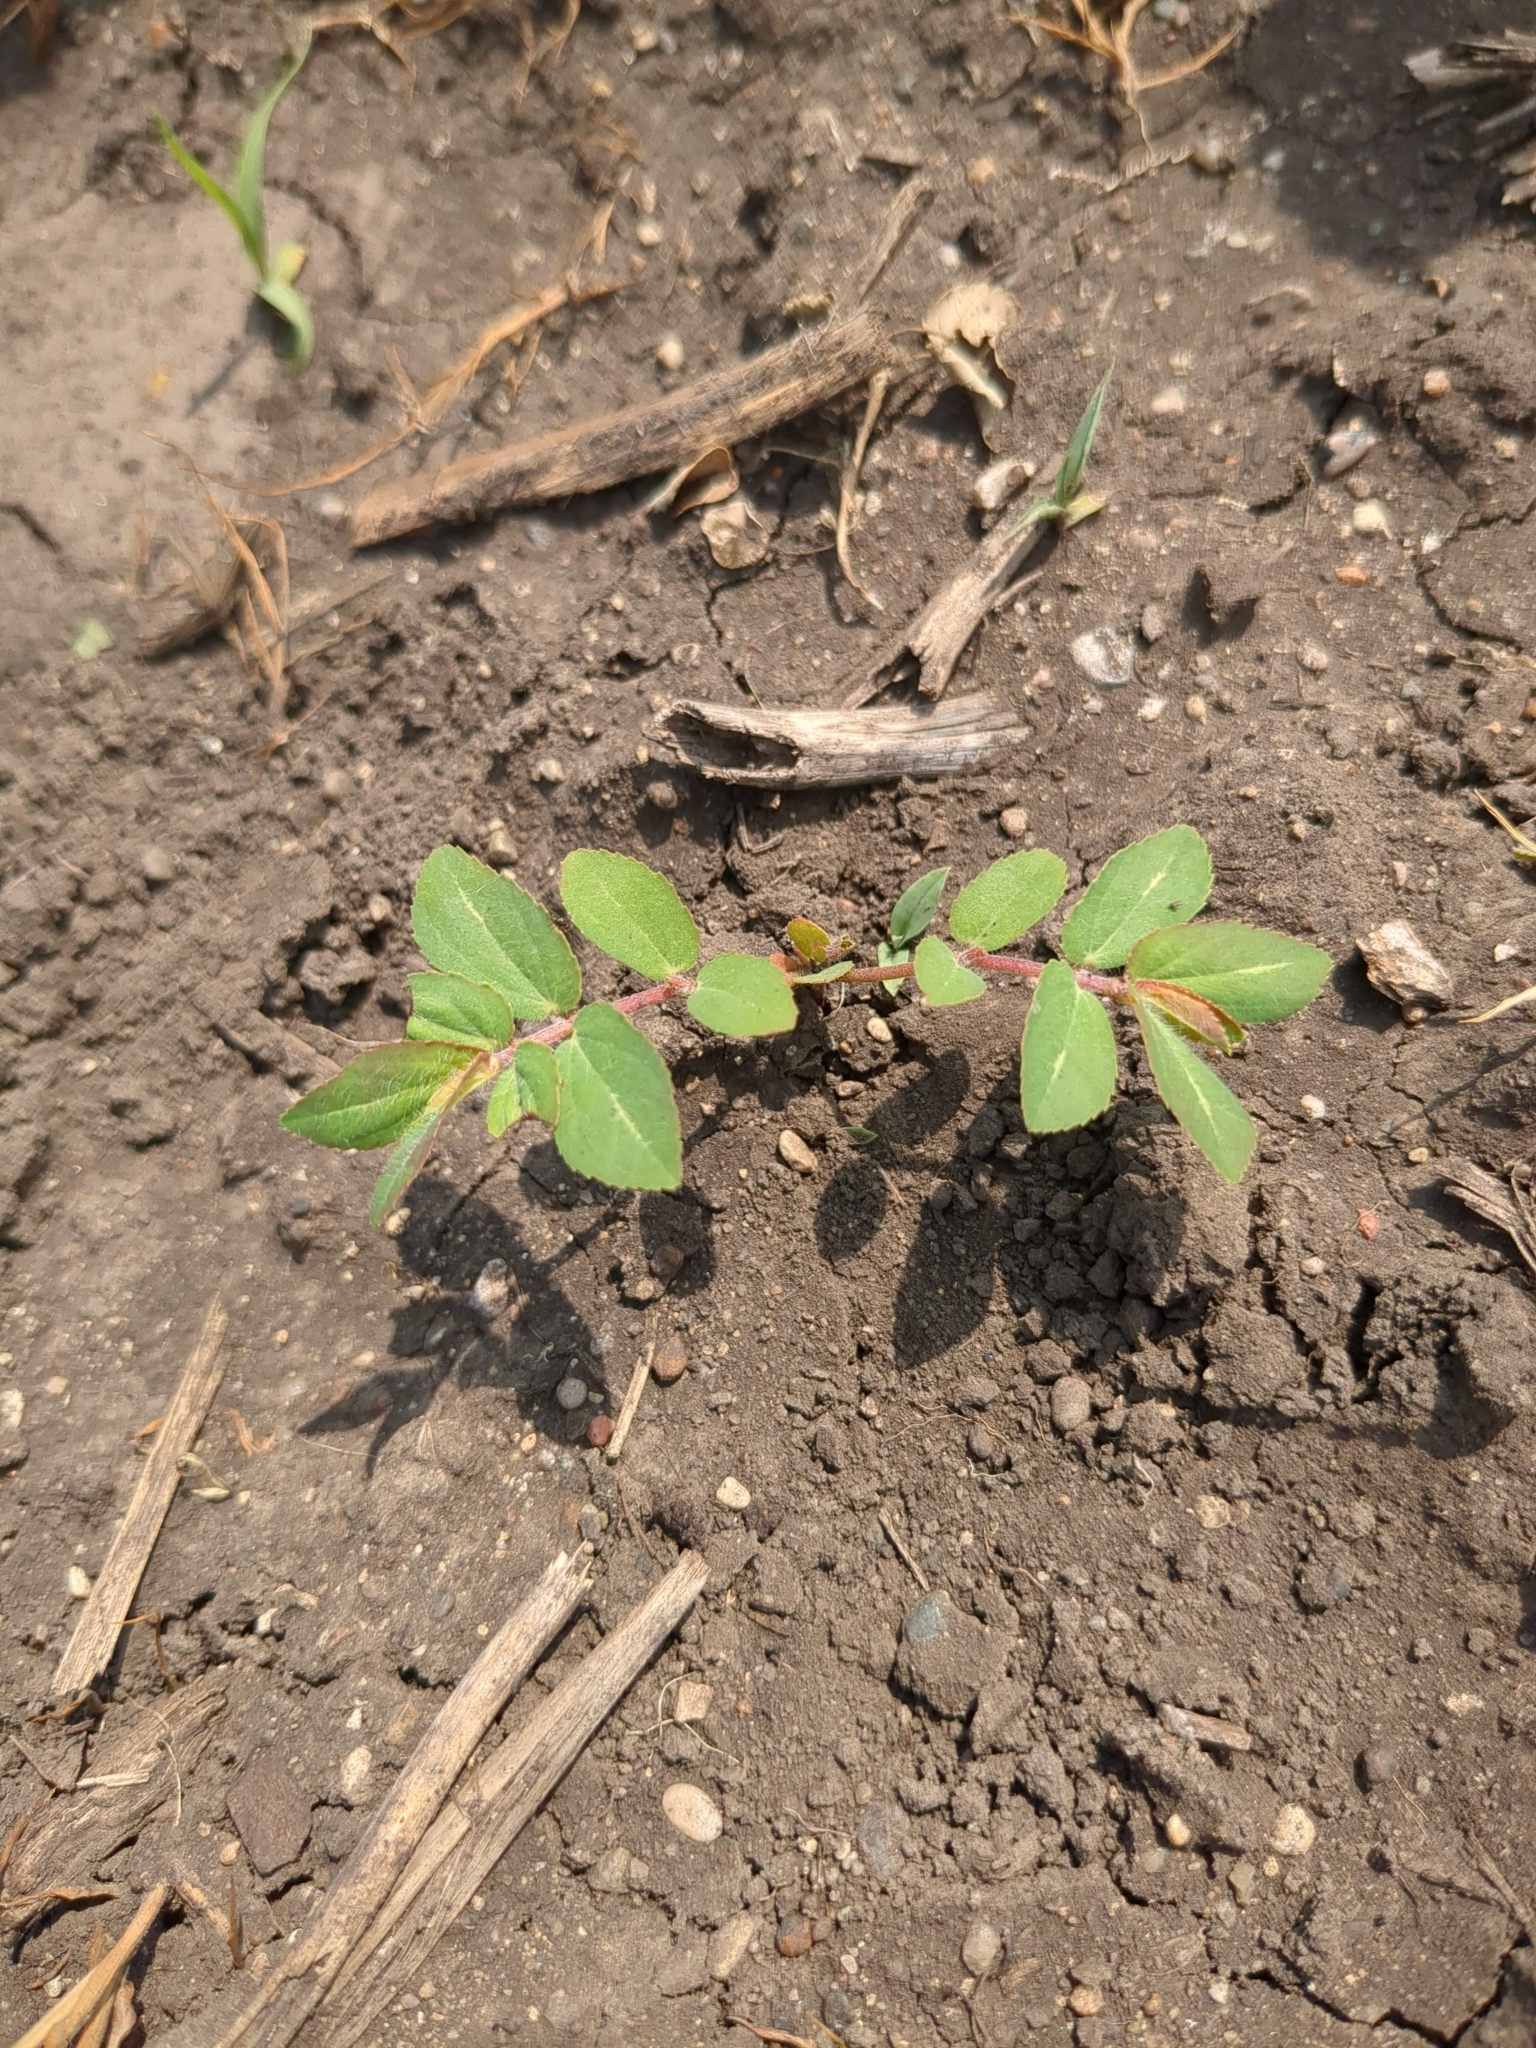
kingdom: Plantae
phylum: Tracheophyta
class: Magnoliopsida
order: Malpighiales
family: Euphorbiaceae
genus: Euphorbia
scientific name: Euphorbia nutans
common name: Eyebane
